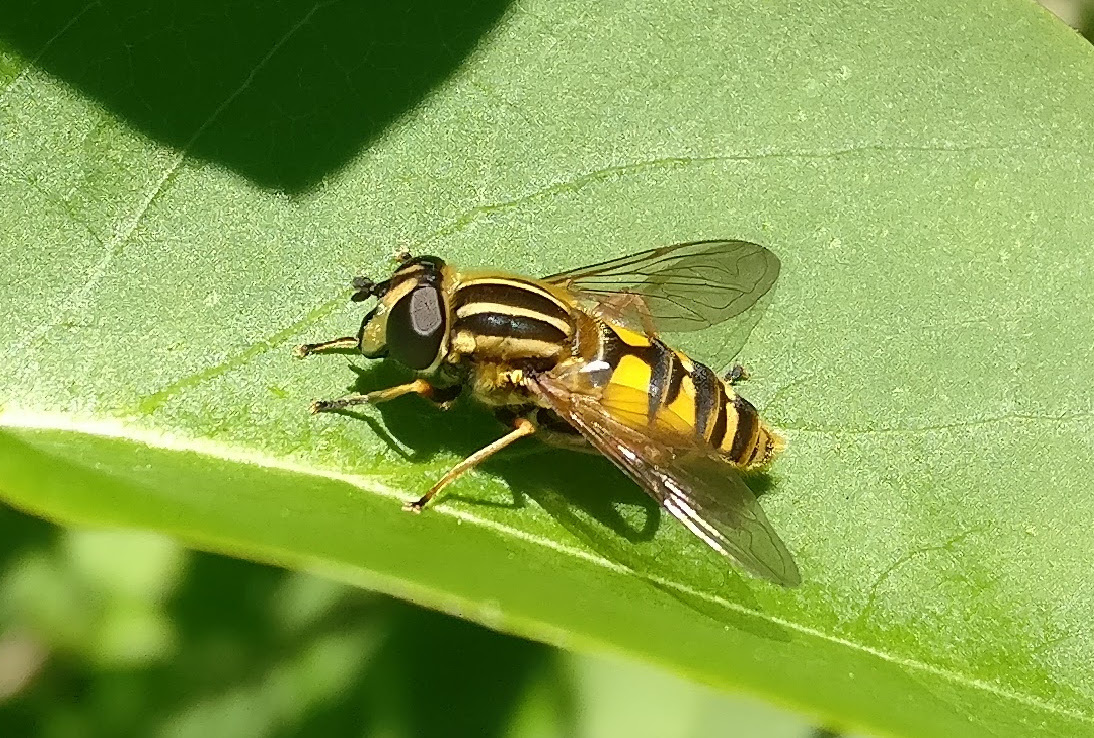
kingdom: Animalia
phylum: Arthropoda
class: Insecta
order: Diptera
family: Syrphidae
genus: Helophilus
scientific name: Helophilus pendulus
